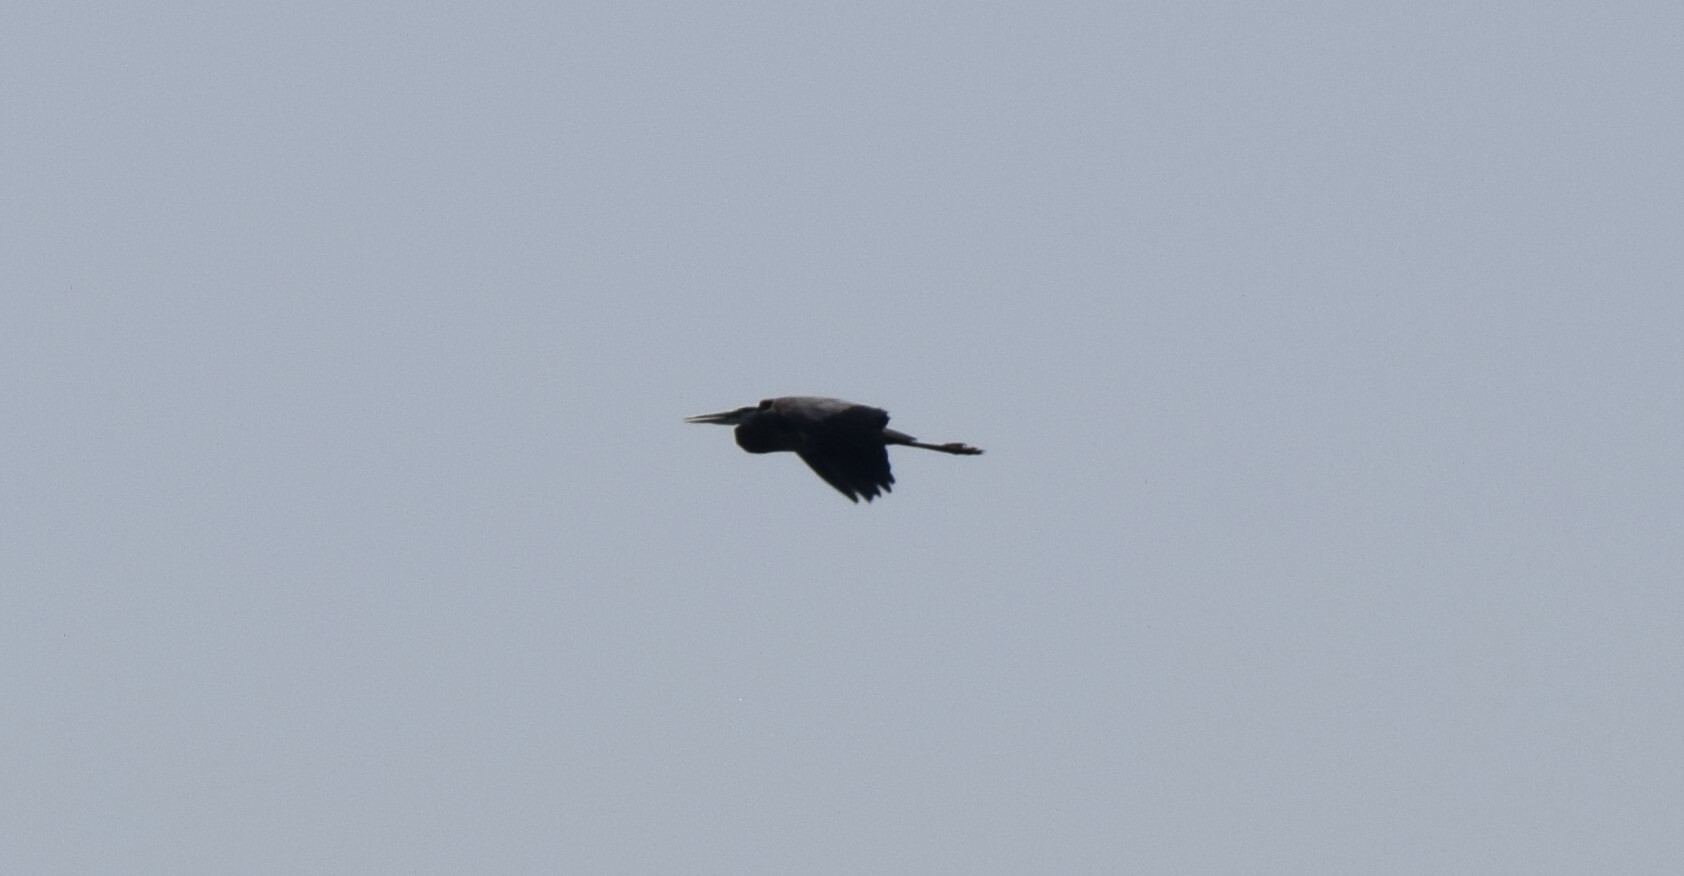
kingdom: Animalia
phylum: Chordata
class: Aves
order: Pelecaniformes
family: Ardeidae
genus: Ardea
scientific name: Ardea herodias
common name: Great blue heron
